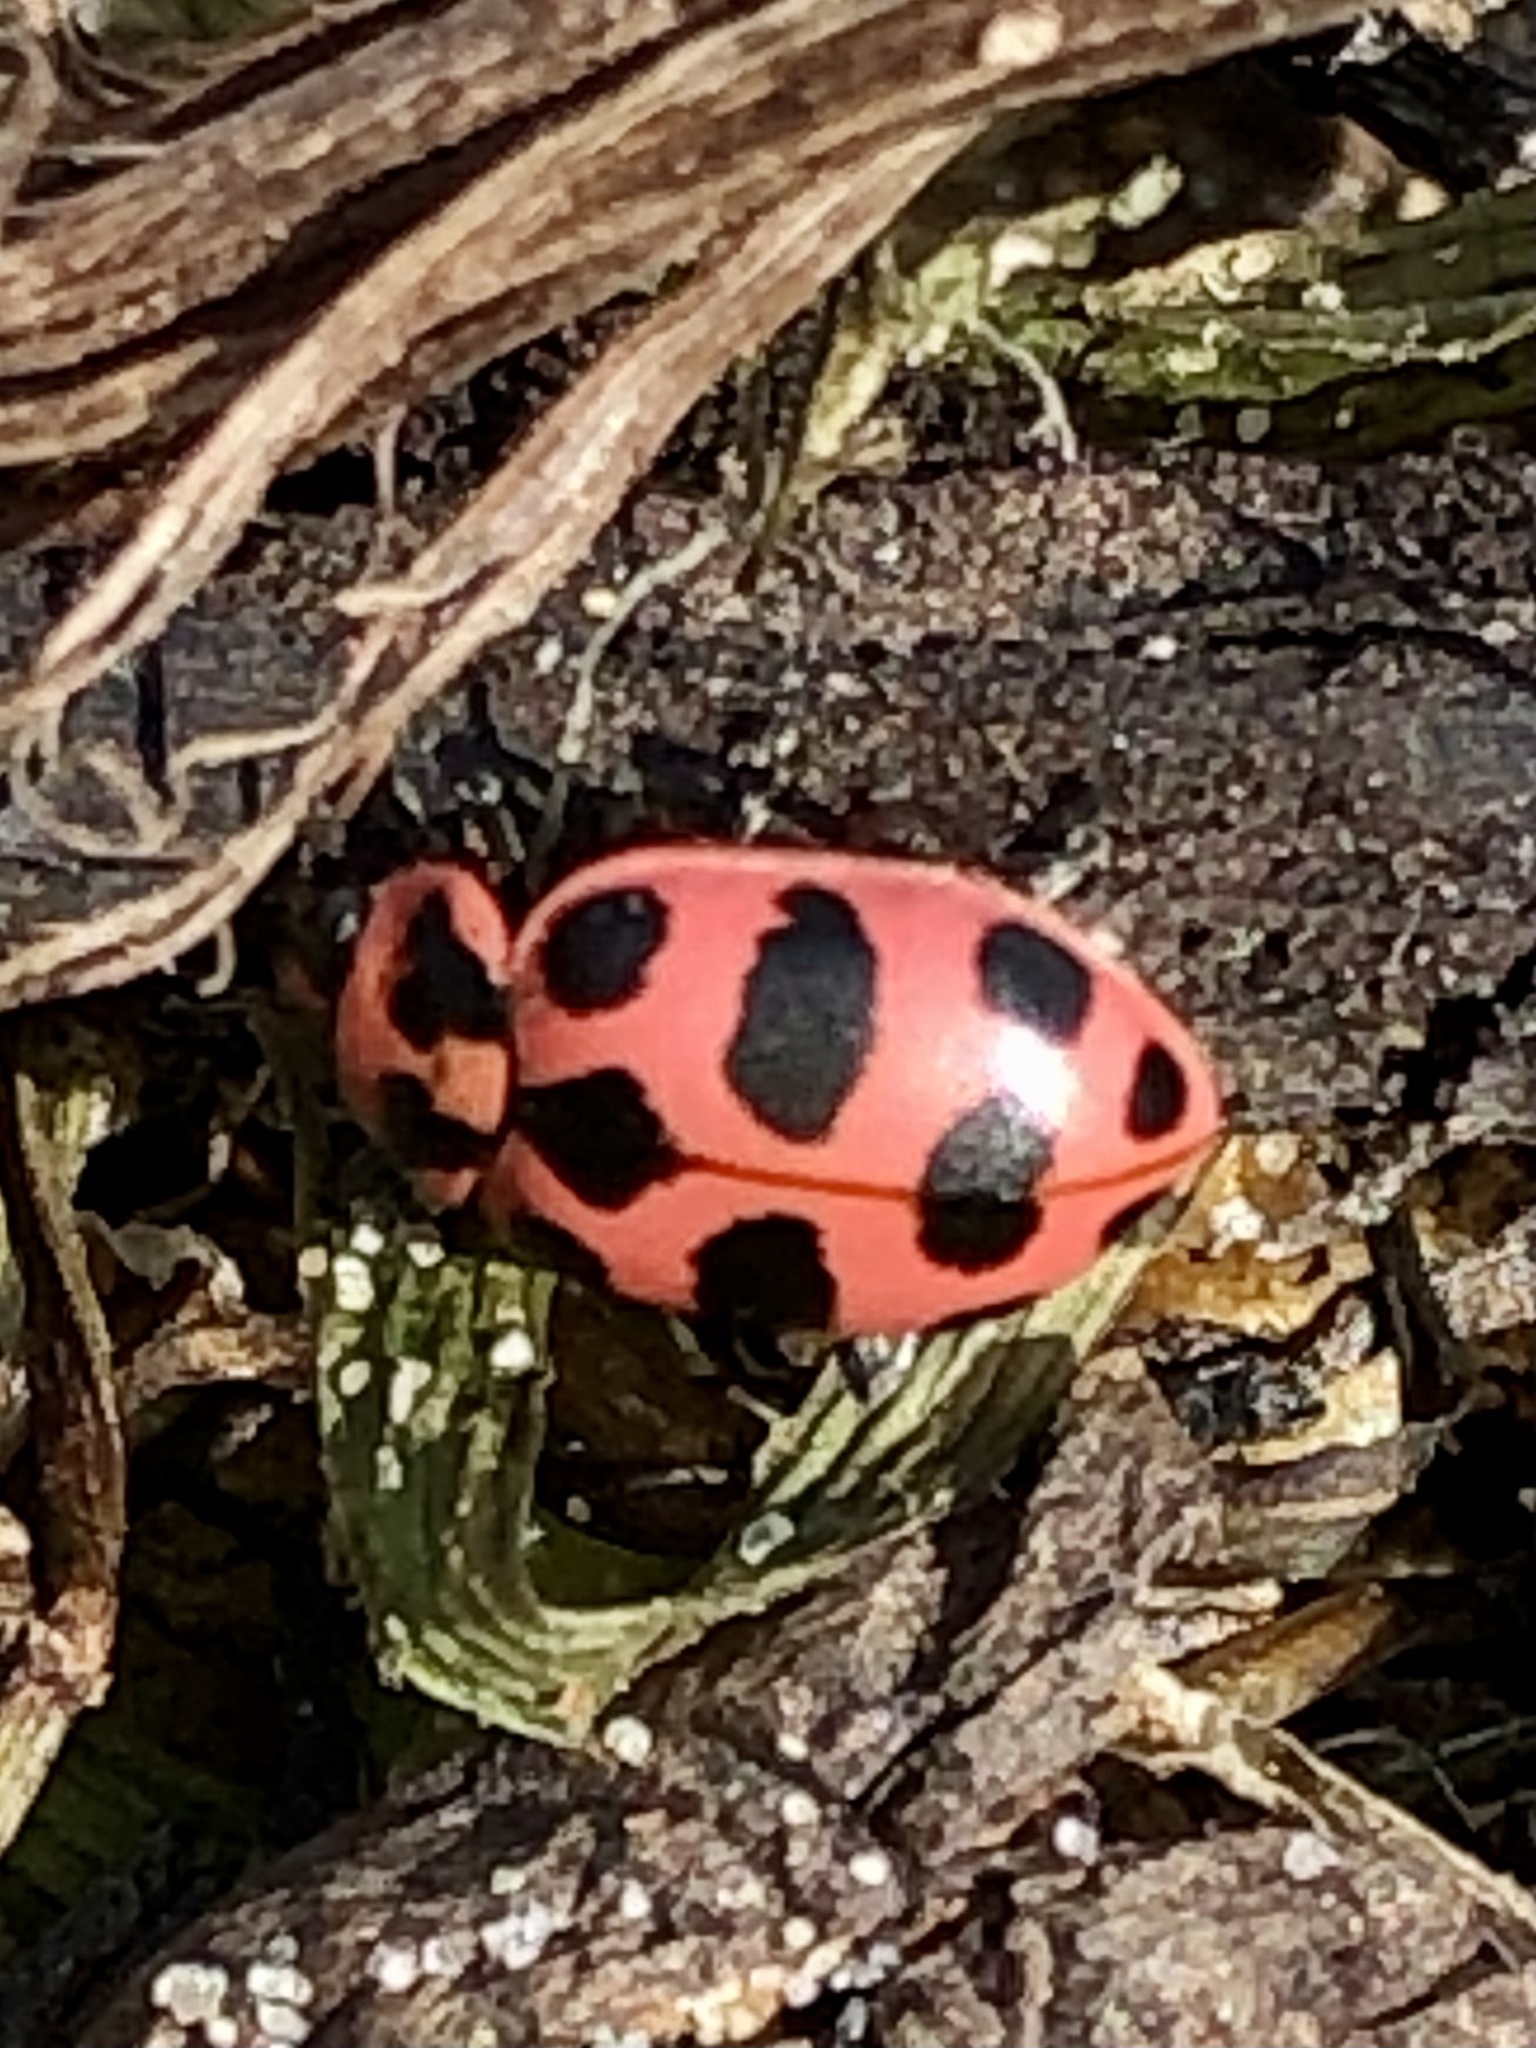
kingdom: Animalia
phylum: Arthropoda
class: Insecta
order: Coleoptera
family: Coccinellidae
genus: Coleomegilla
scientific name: Coleomegilla maculata
